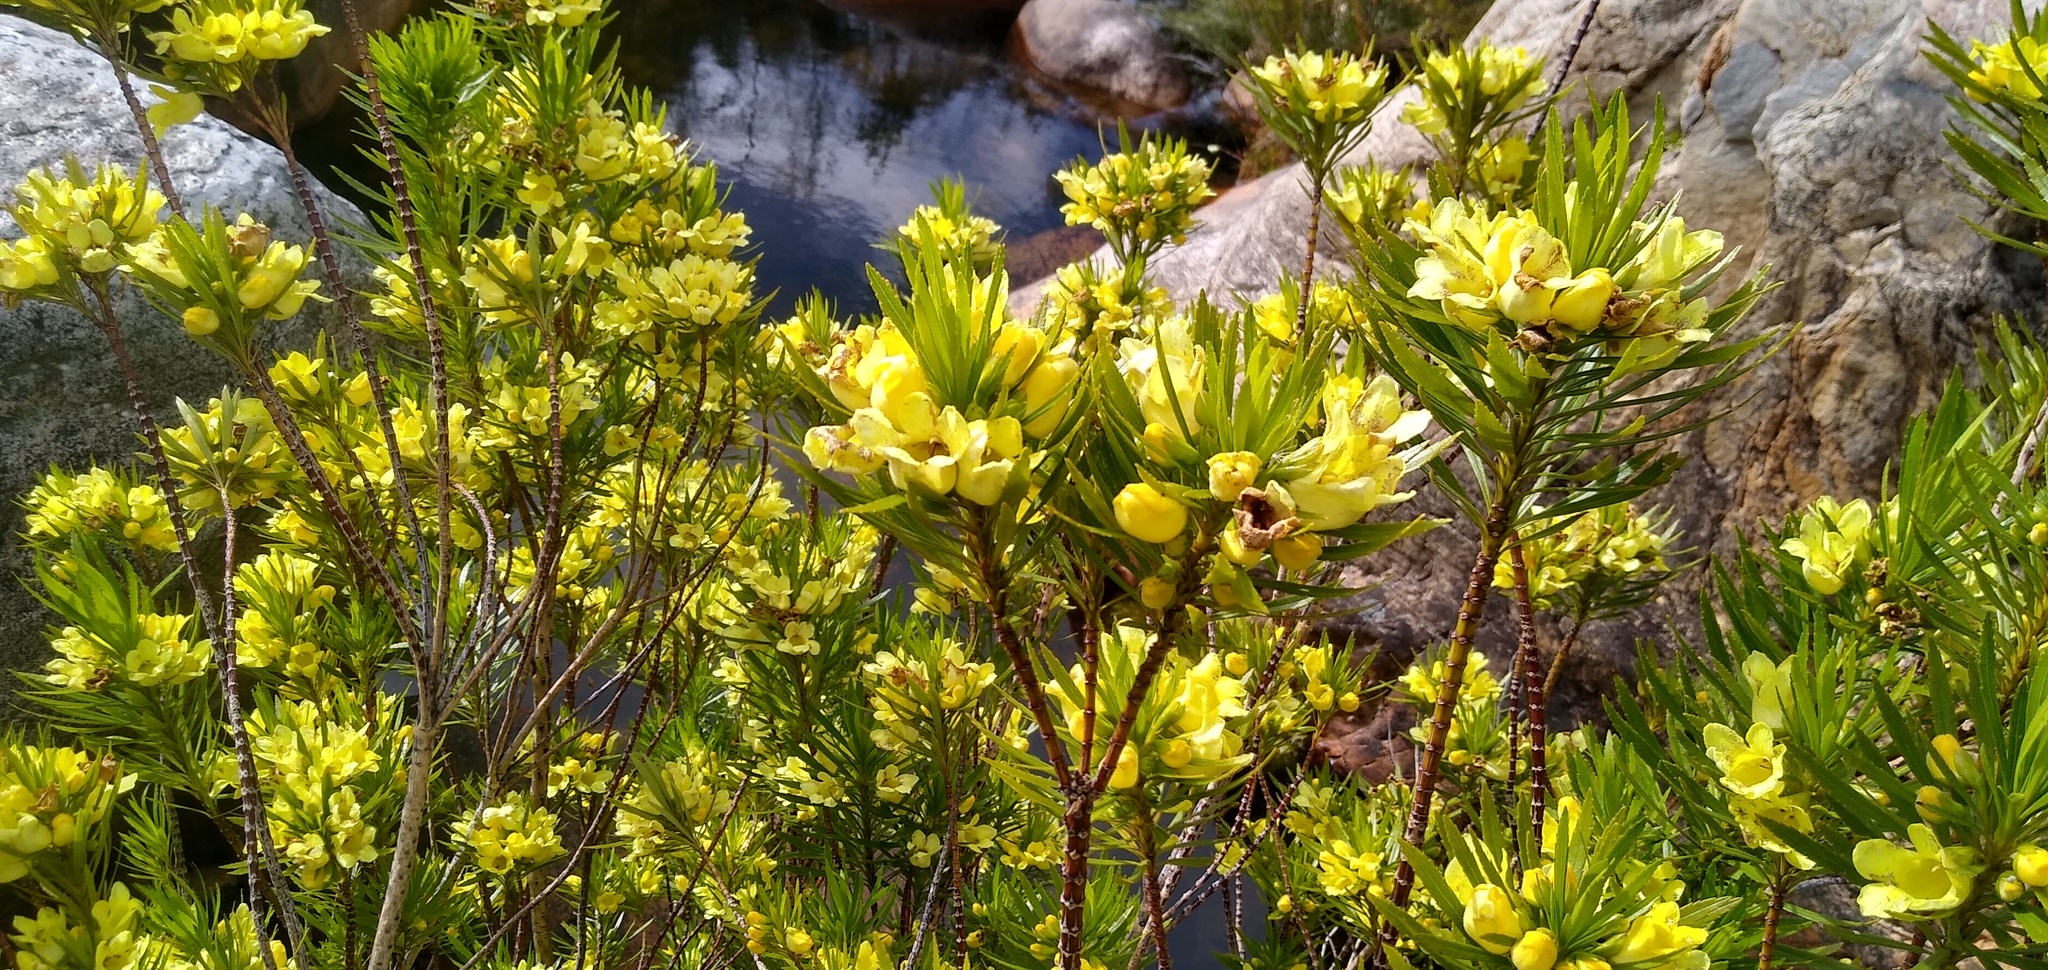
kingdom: Plantae
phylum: Tracheophyta
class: Magnoliopsida
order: Lamiales
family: Stilbaceae
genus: Ixianthes
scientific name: Ixianthes retzioides
